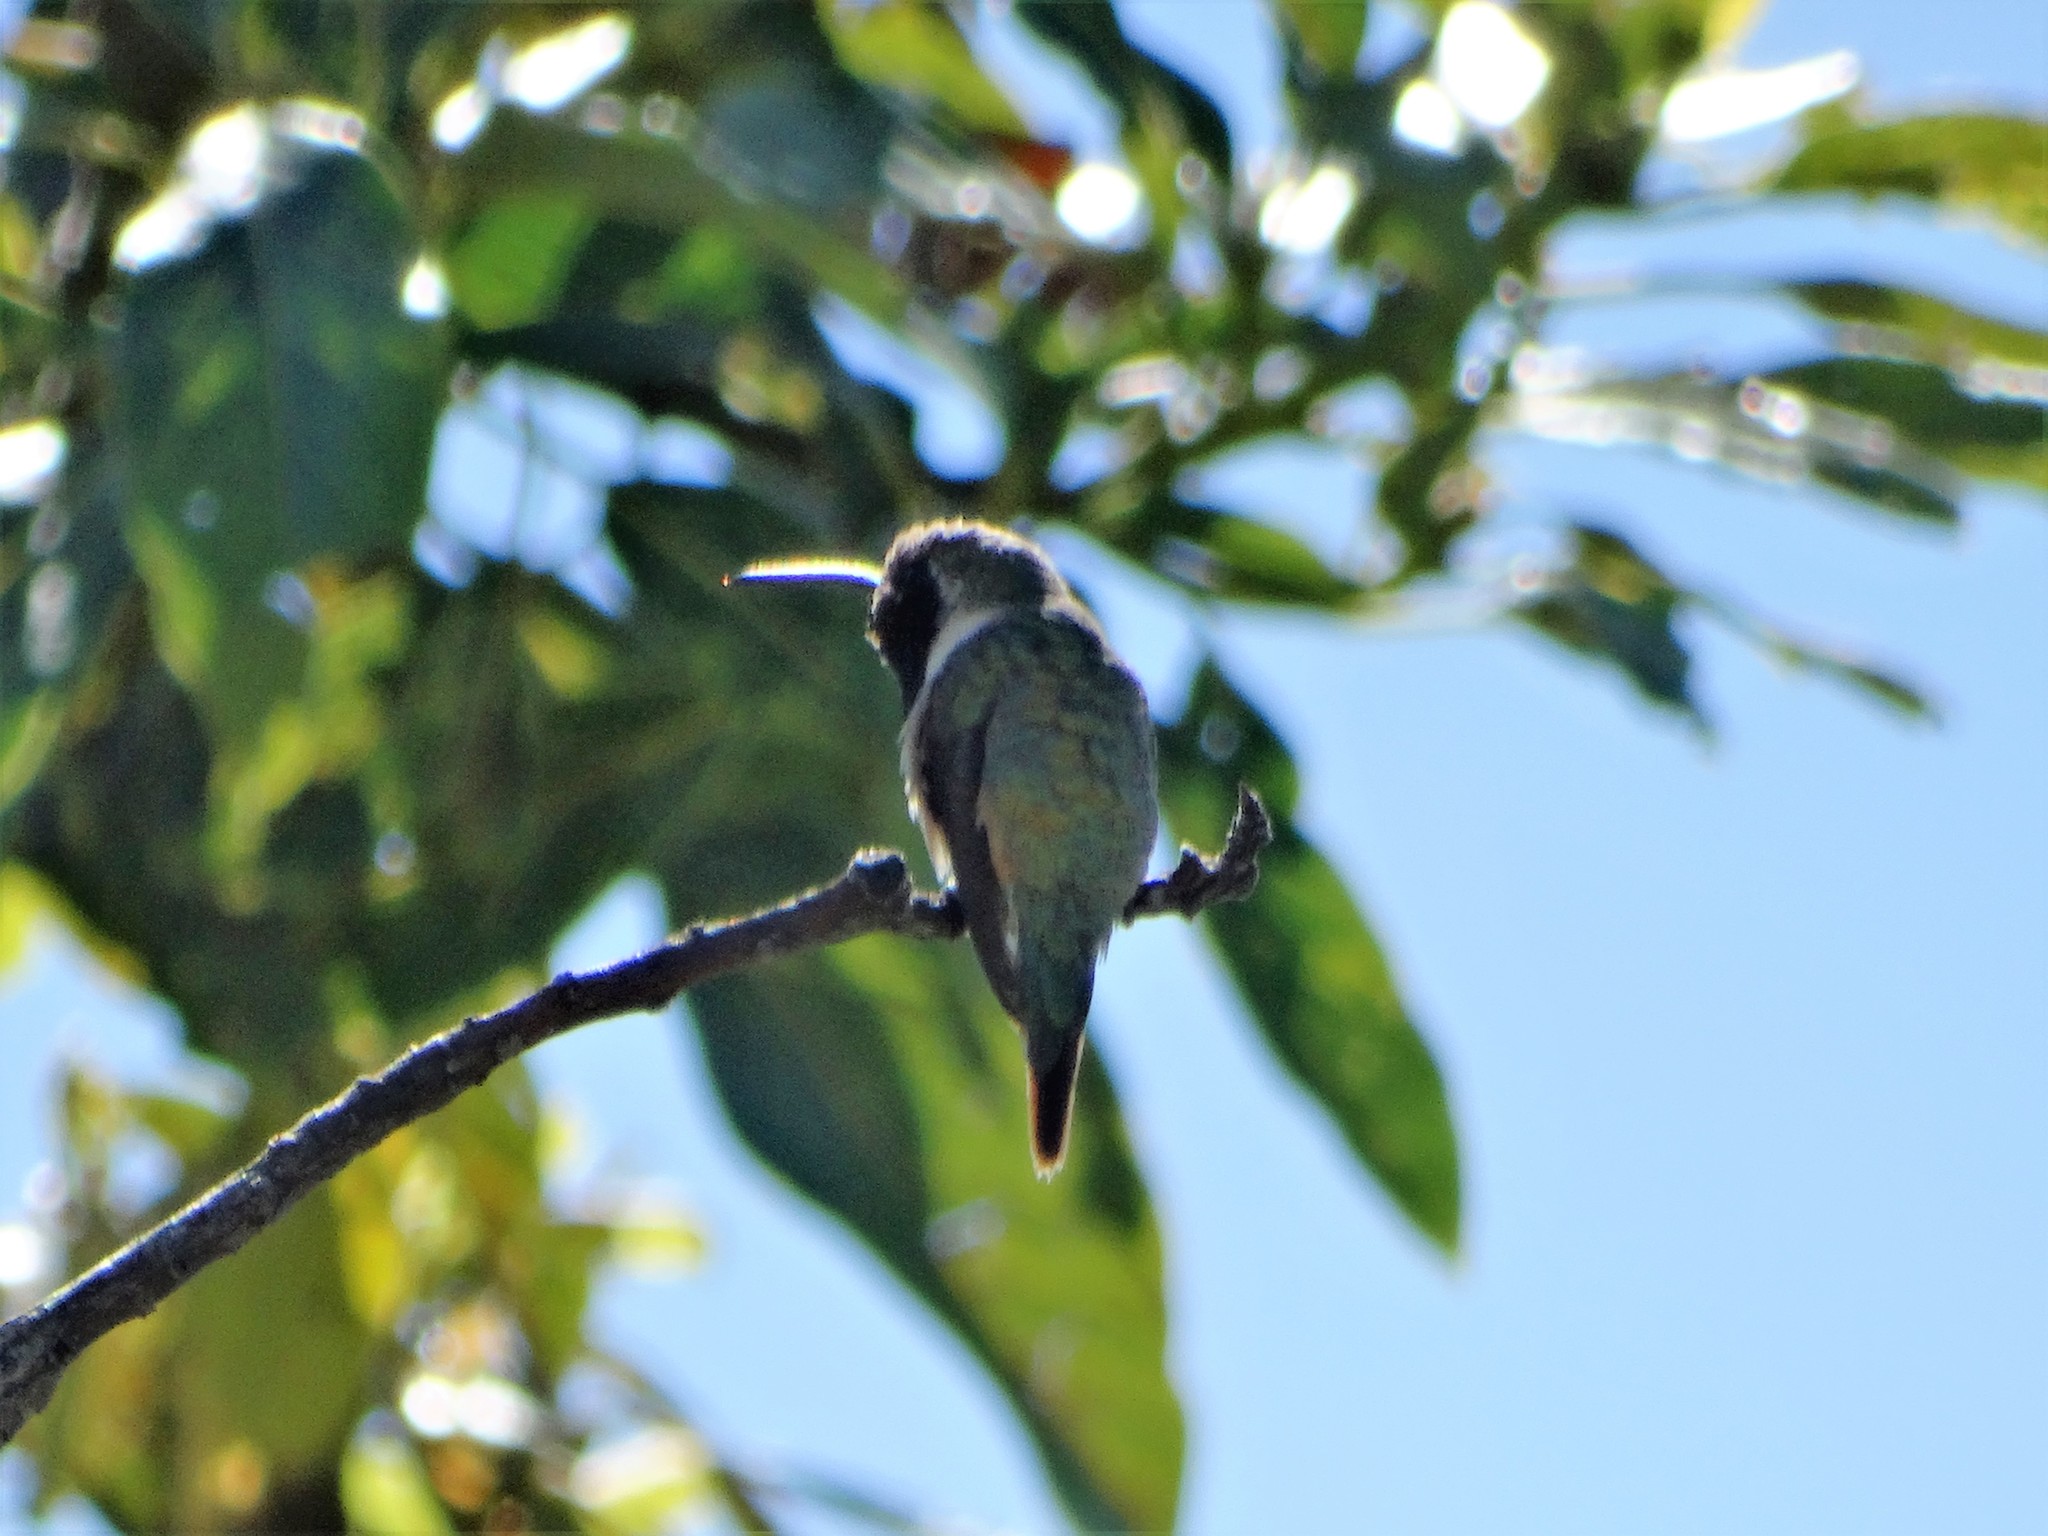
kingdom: Animalia
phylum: Chordata
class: Aves
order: Apodiformes
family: Trochilidae
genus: Calothorax
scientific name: Calothorax lucifer
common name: Lucifer sheartail
